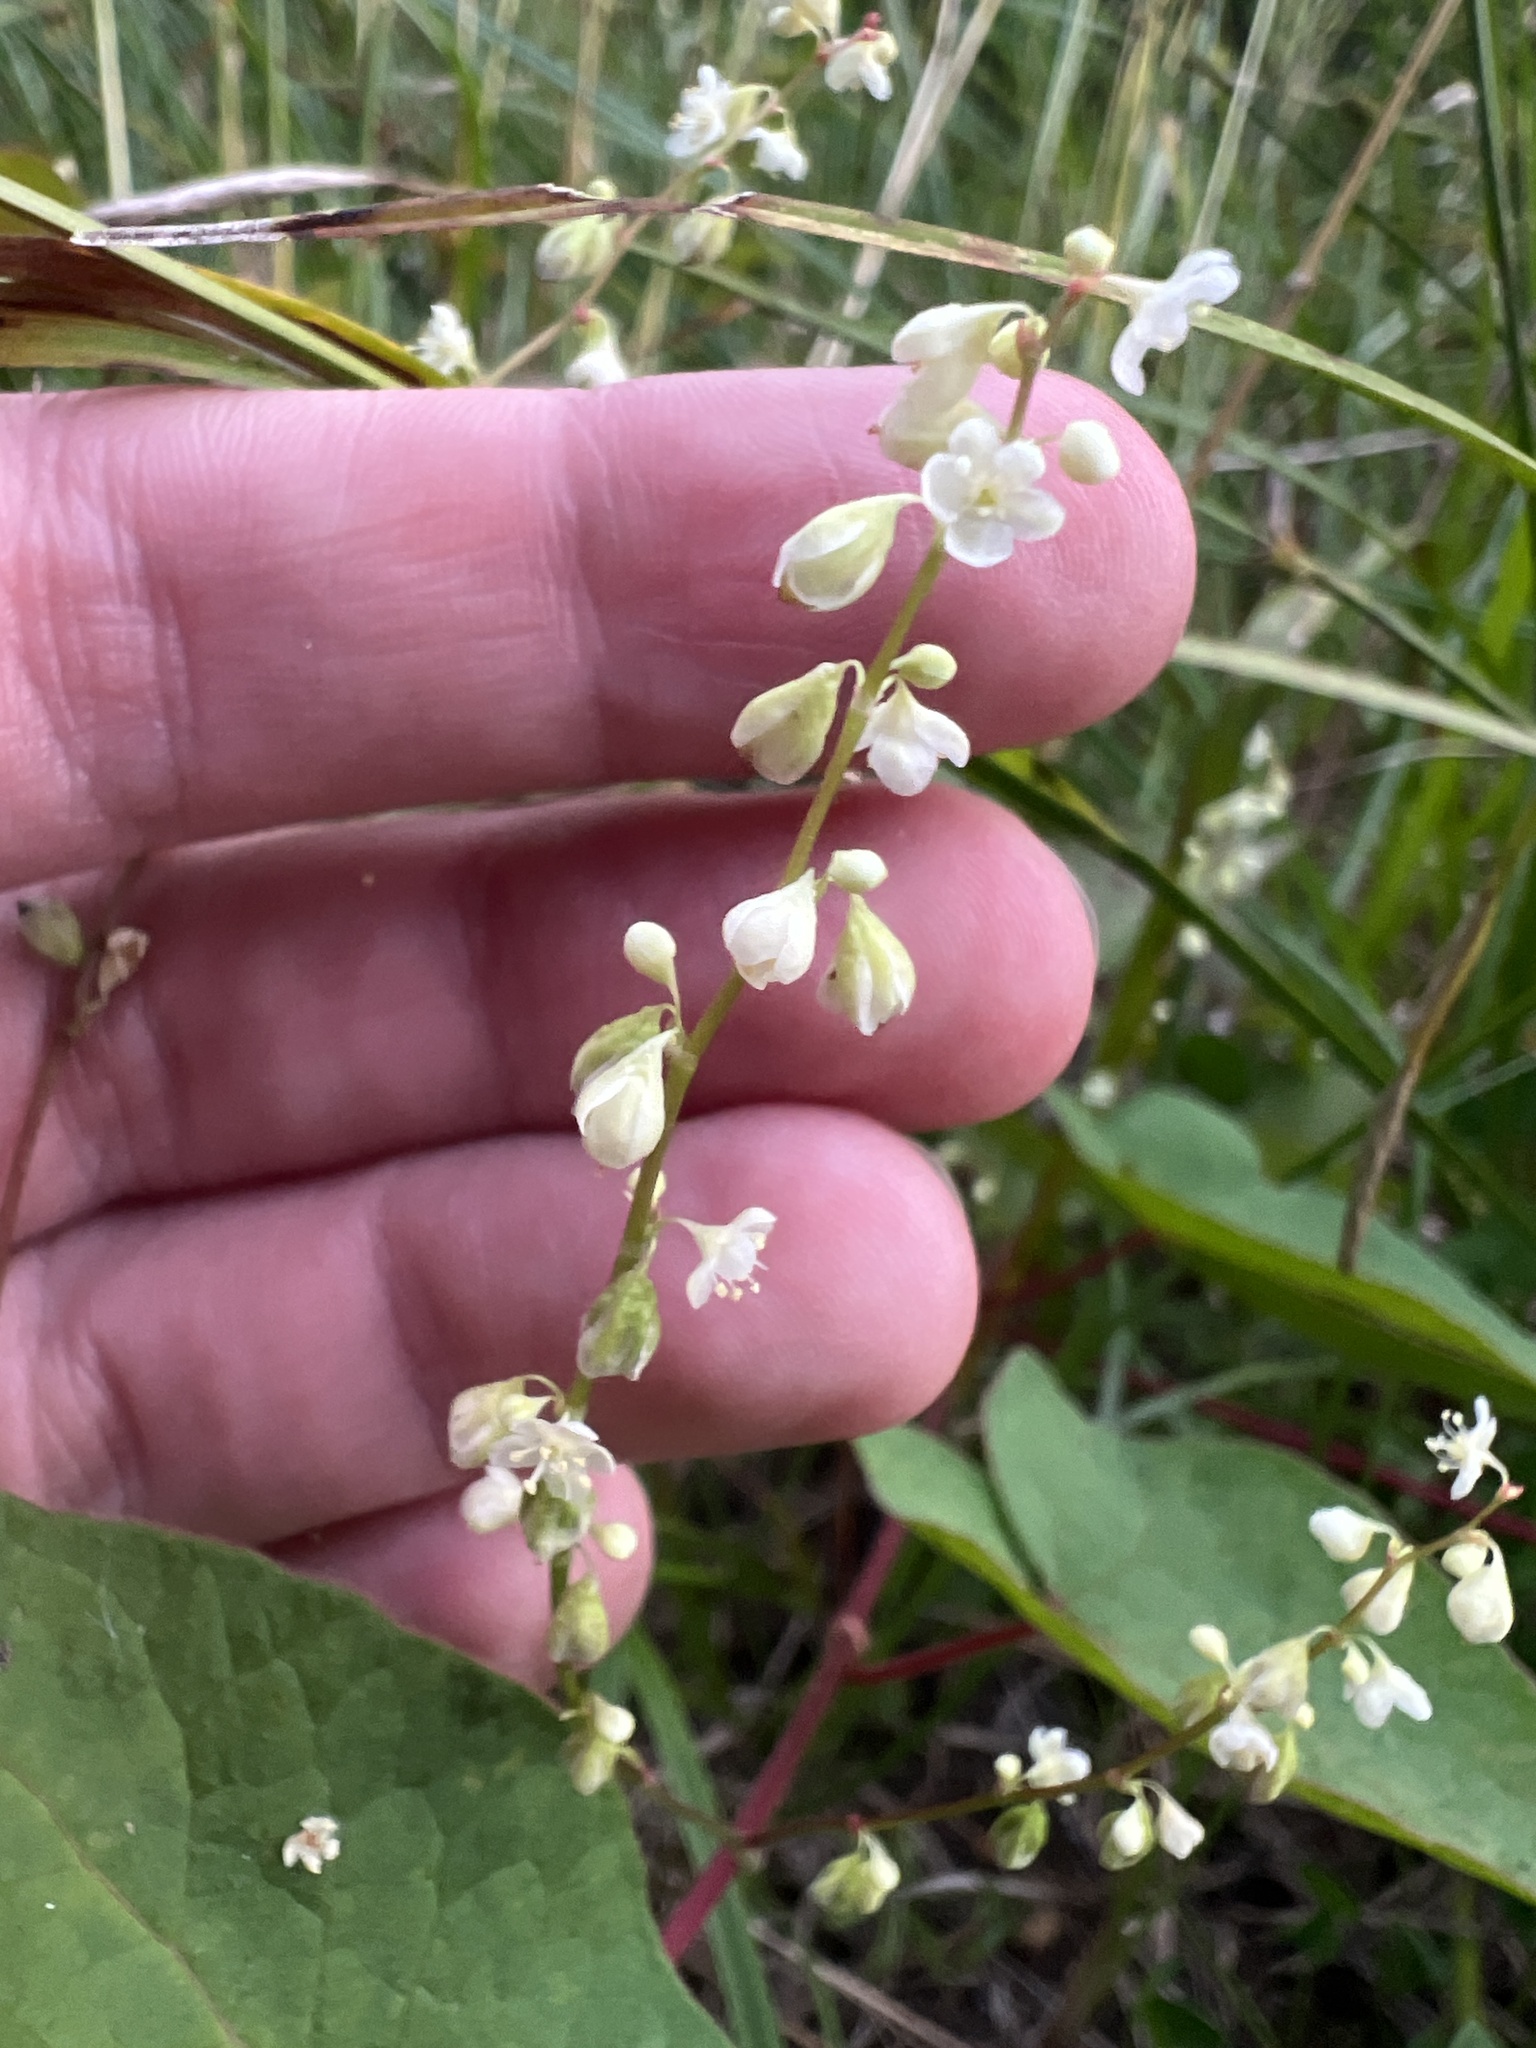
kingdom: Plantae
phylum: Tracheophyta
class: Magnoliopsida
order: Caryophyllales
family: Polygonaceae
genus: Parogonum
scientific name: Parogonum ciliinode
